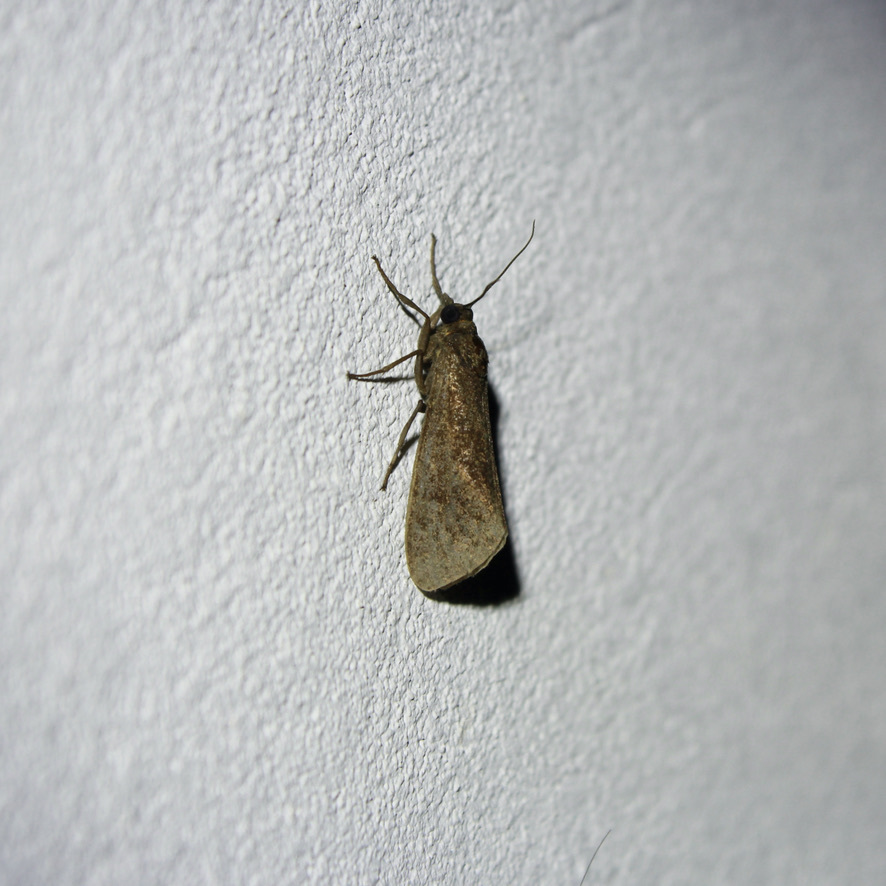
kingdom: Animalia
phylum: Arthropoda
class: Insecta
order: Lepidoptera
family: Erebidae
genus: Virbia
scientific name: Virbia medarda
